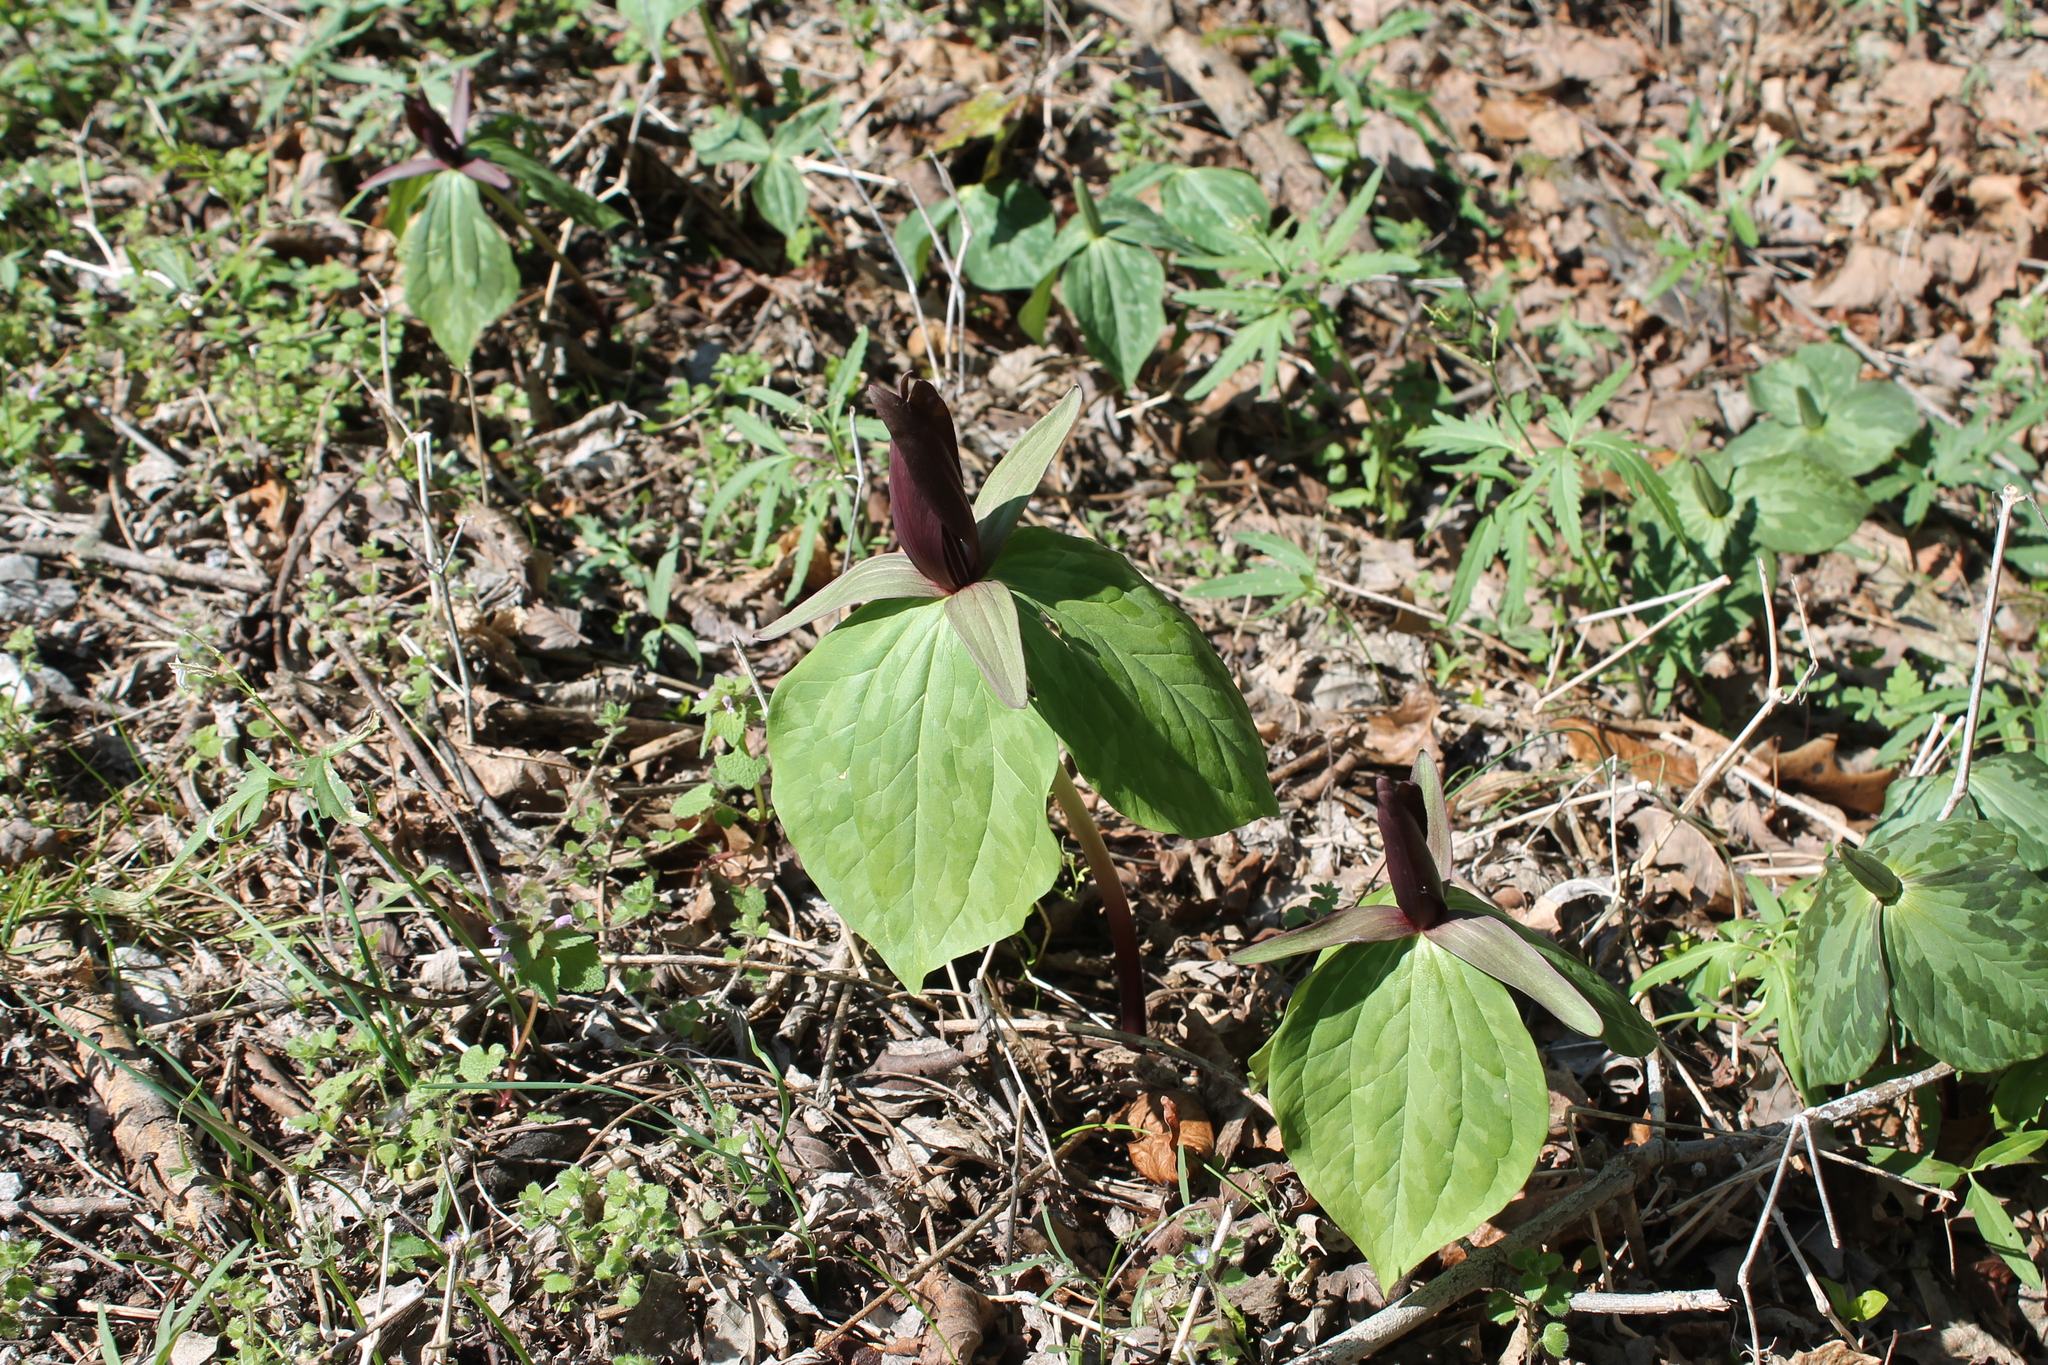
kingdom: Plantae
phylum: Tracheophyta
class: Liliopsida
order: Liliales
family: Melanthiaceae
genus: Trillium
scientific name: Trillium cuneatum
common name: Cuneate trillium
